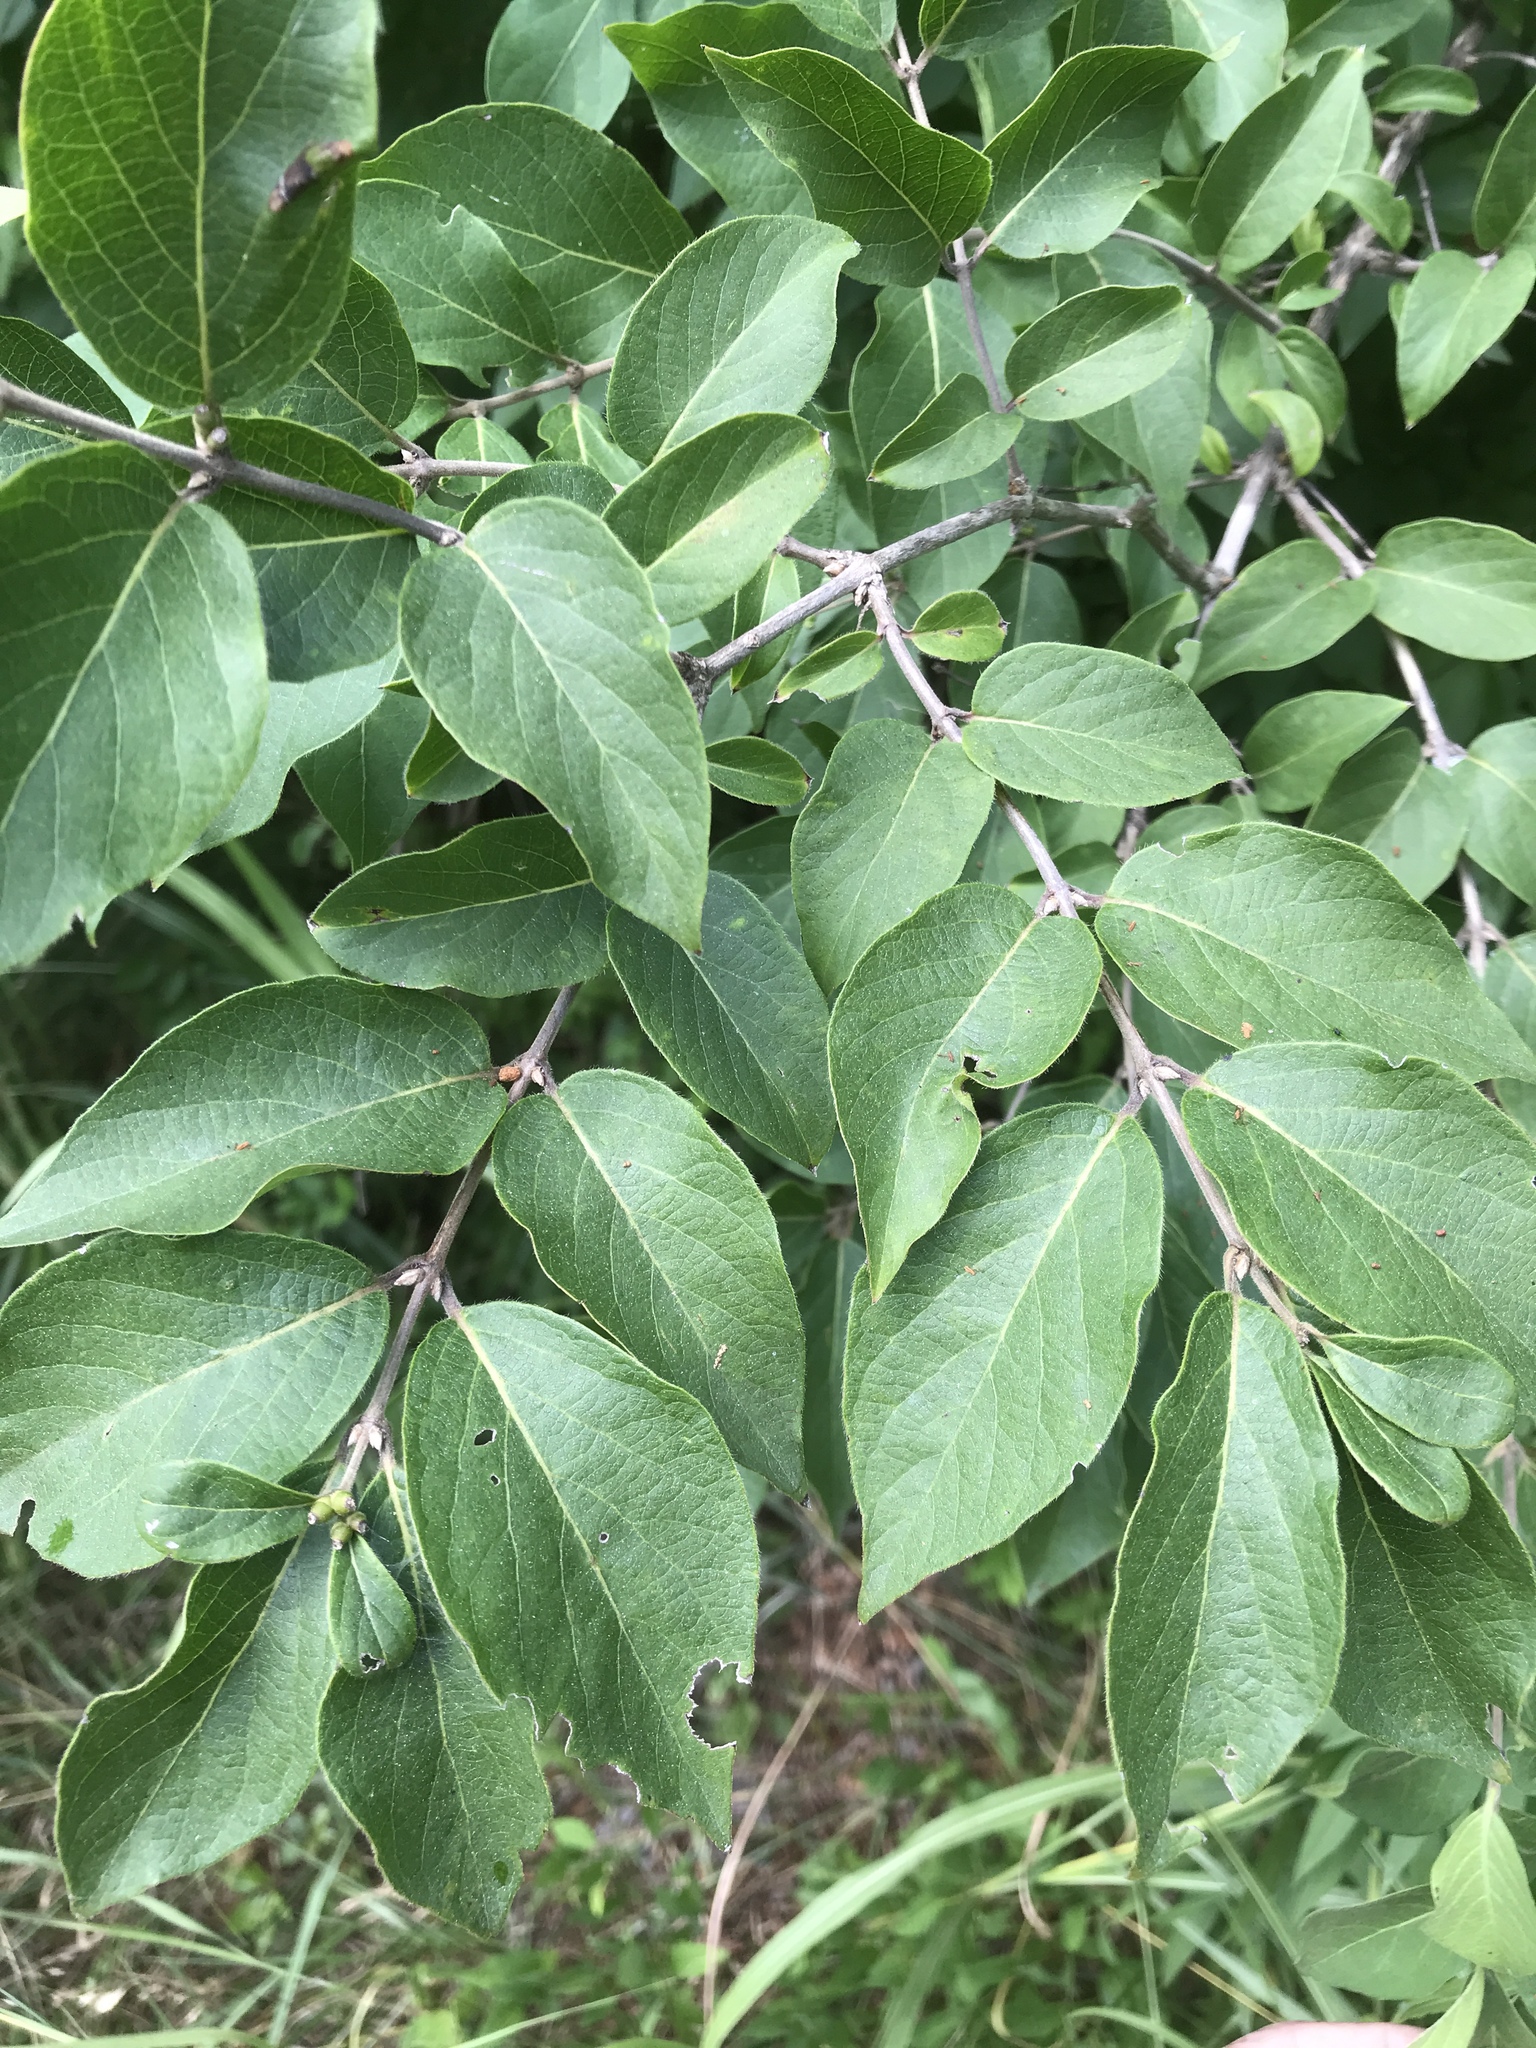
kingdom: Plantae
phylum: Tracheophyta
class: Magnoliopsida
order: Dipsacales
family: Caprifoliaceae
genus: Lonicera
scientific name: Lonicera maackii
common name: Amur honeysuckle
